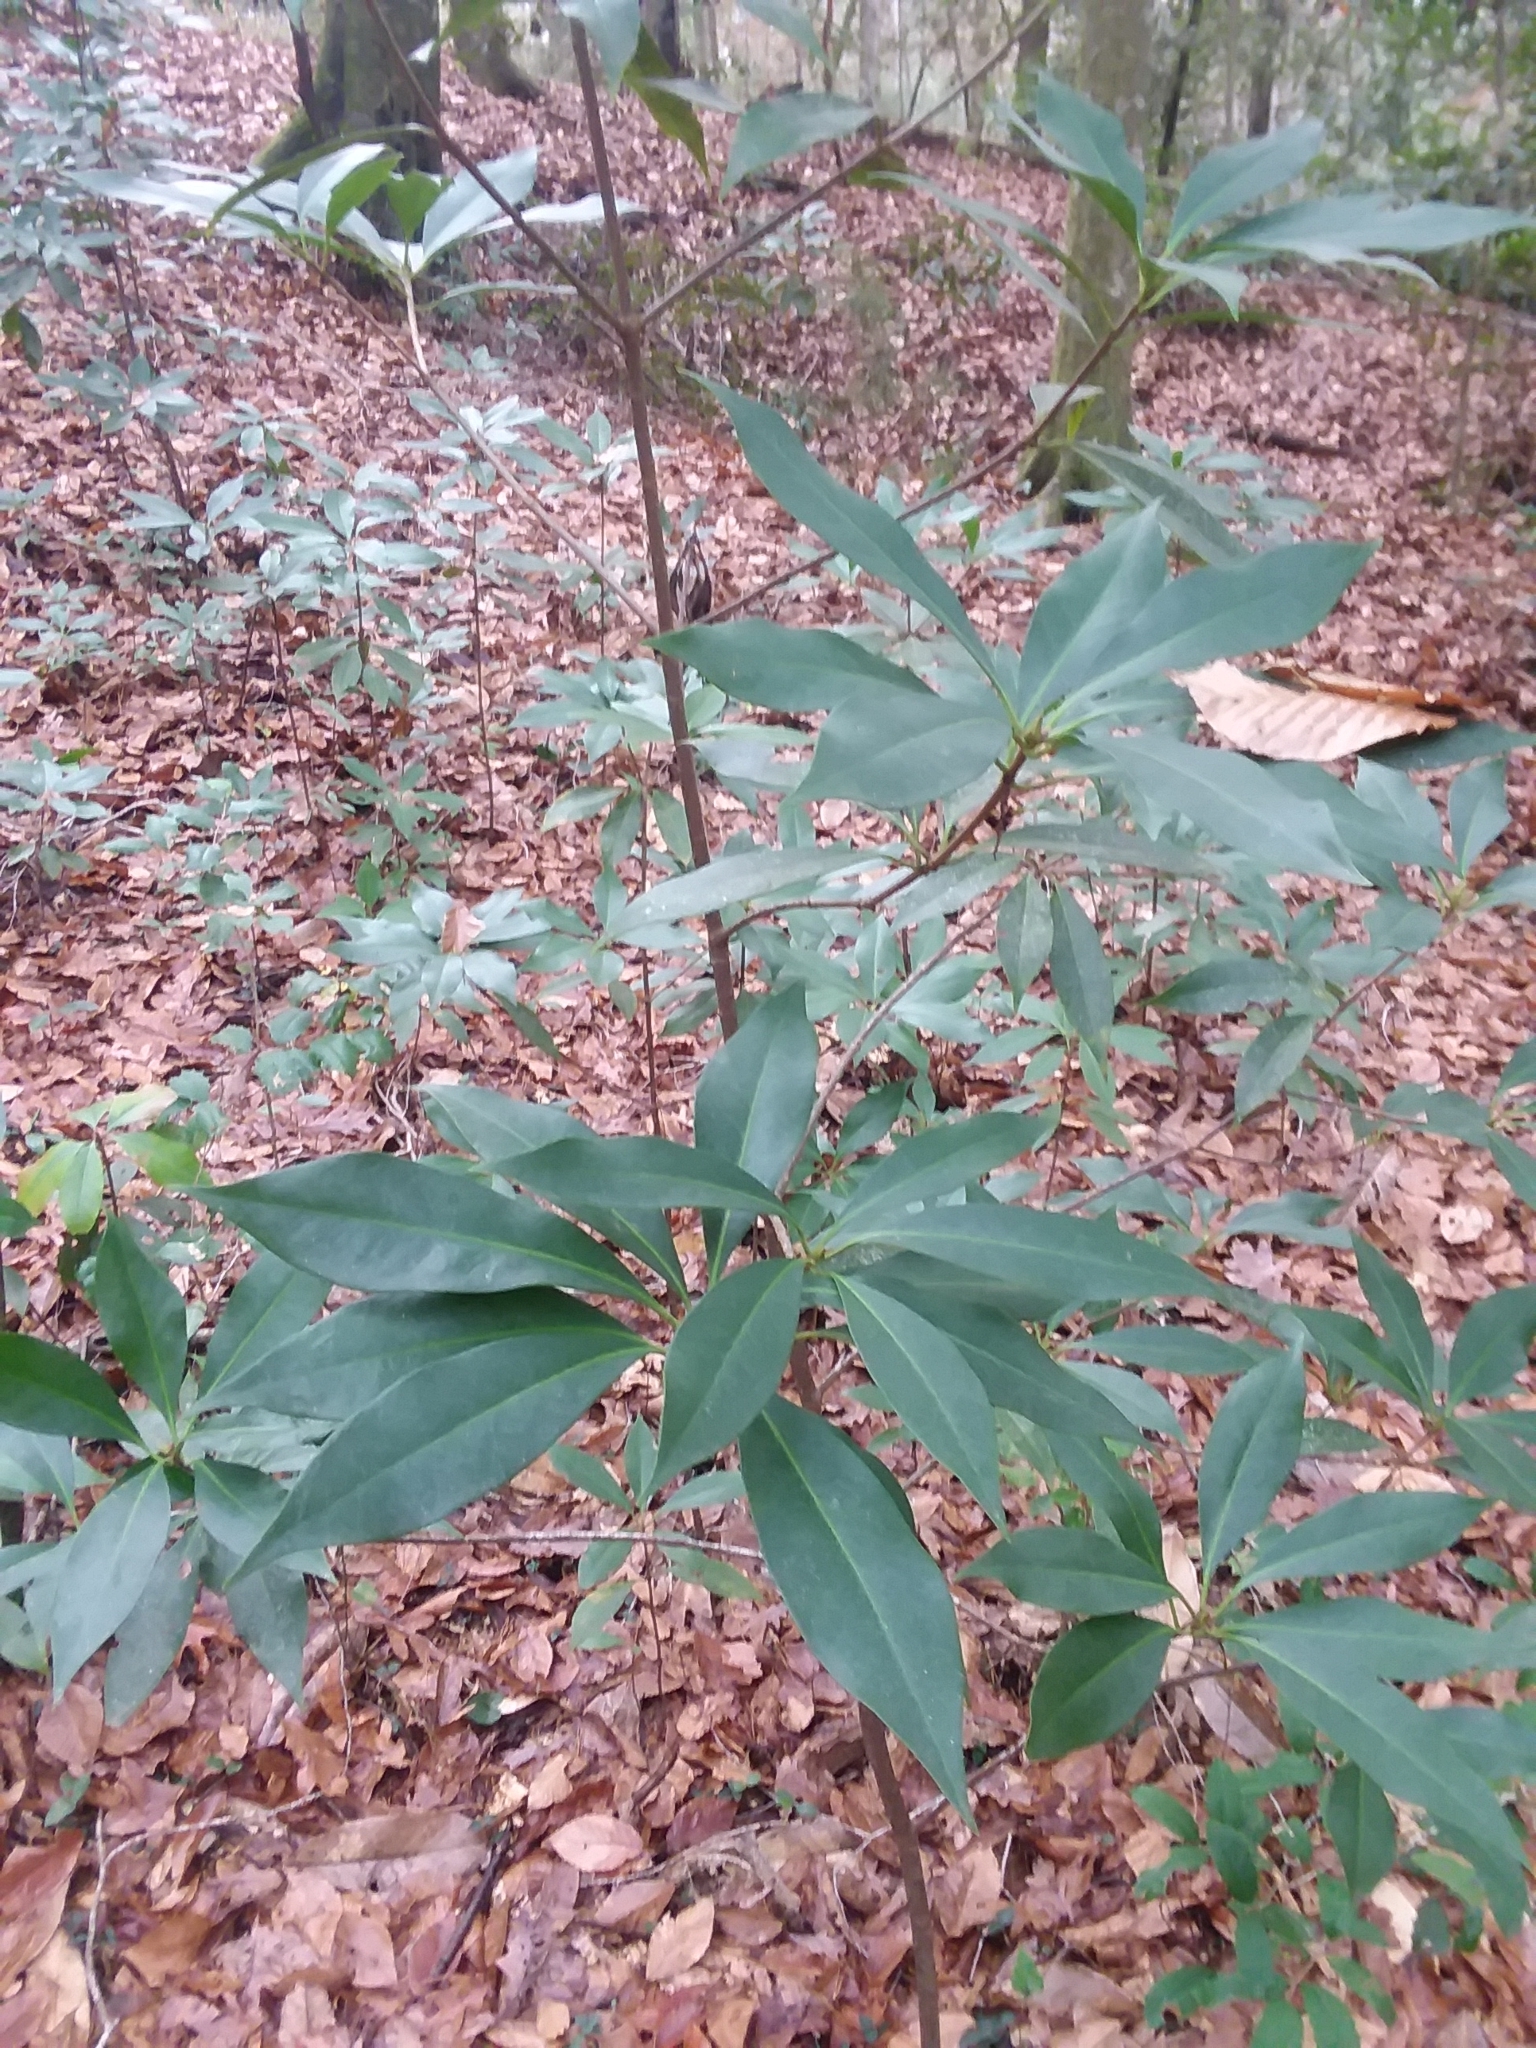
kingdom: Plantae
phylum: Tracheophyta
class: Magnoliopsida
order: Austrobaileyales
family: Schisandraceae
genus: Illicium
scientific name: Illicium floridanum
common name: Florida anisetree
